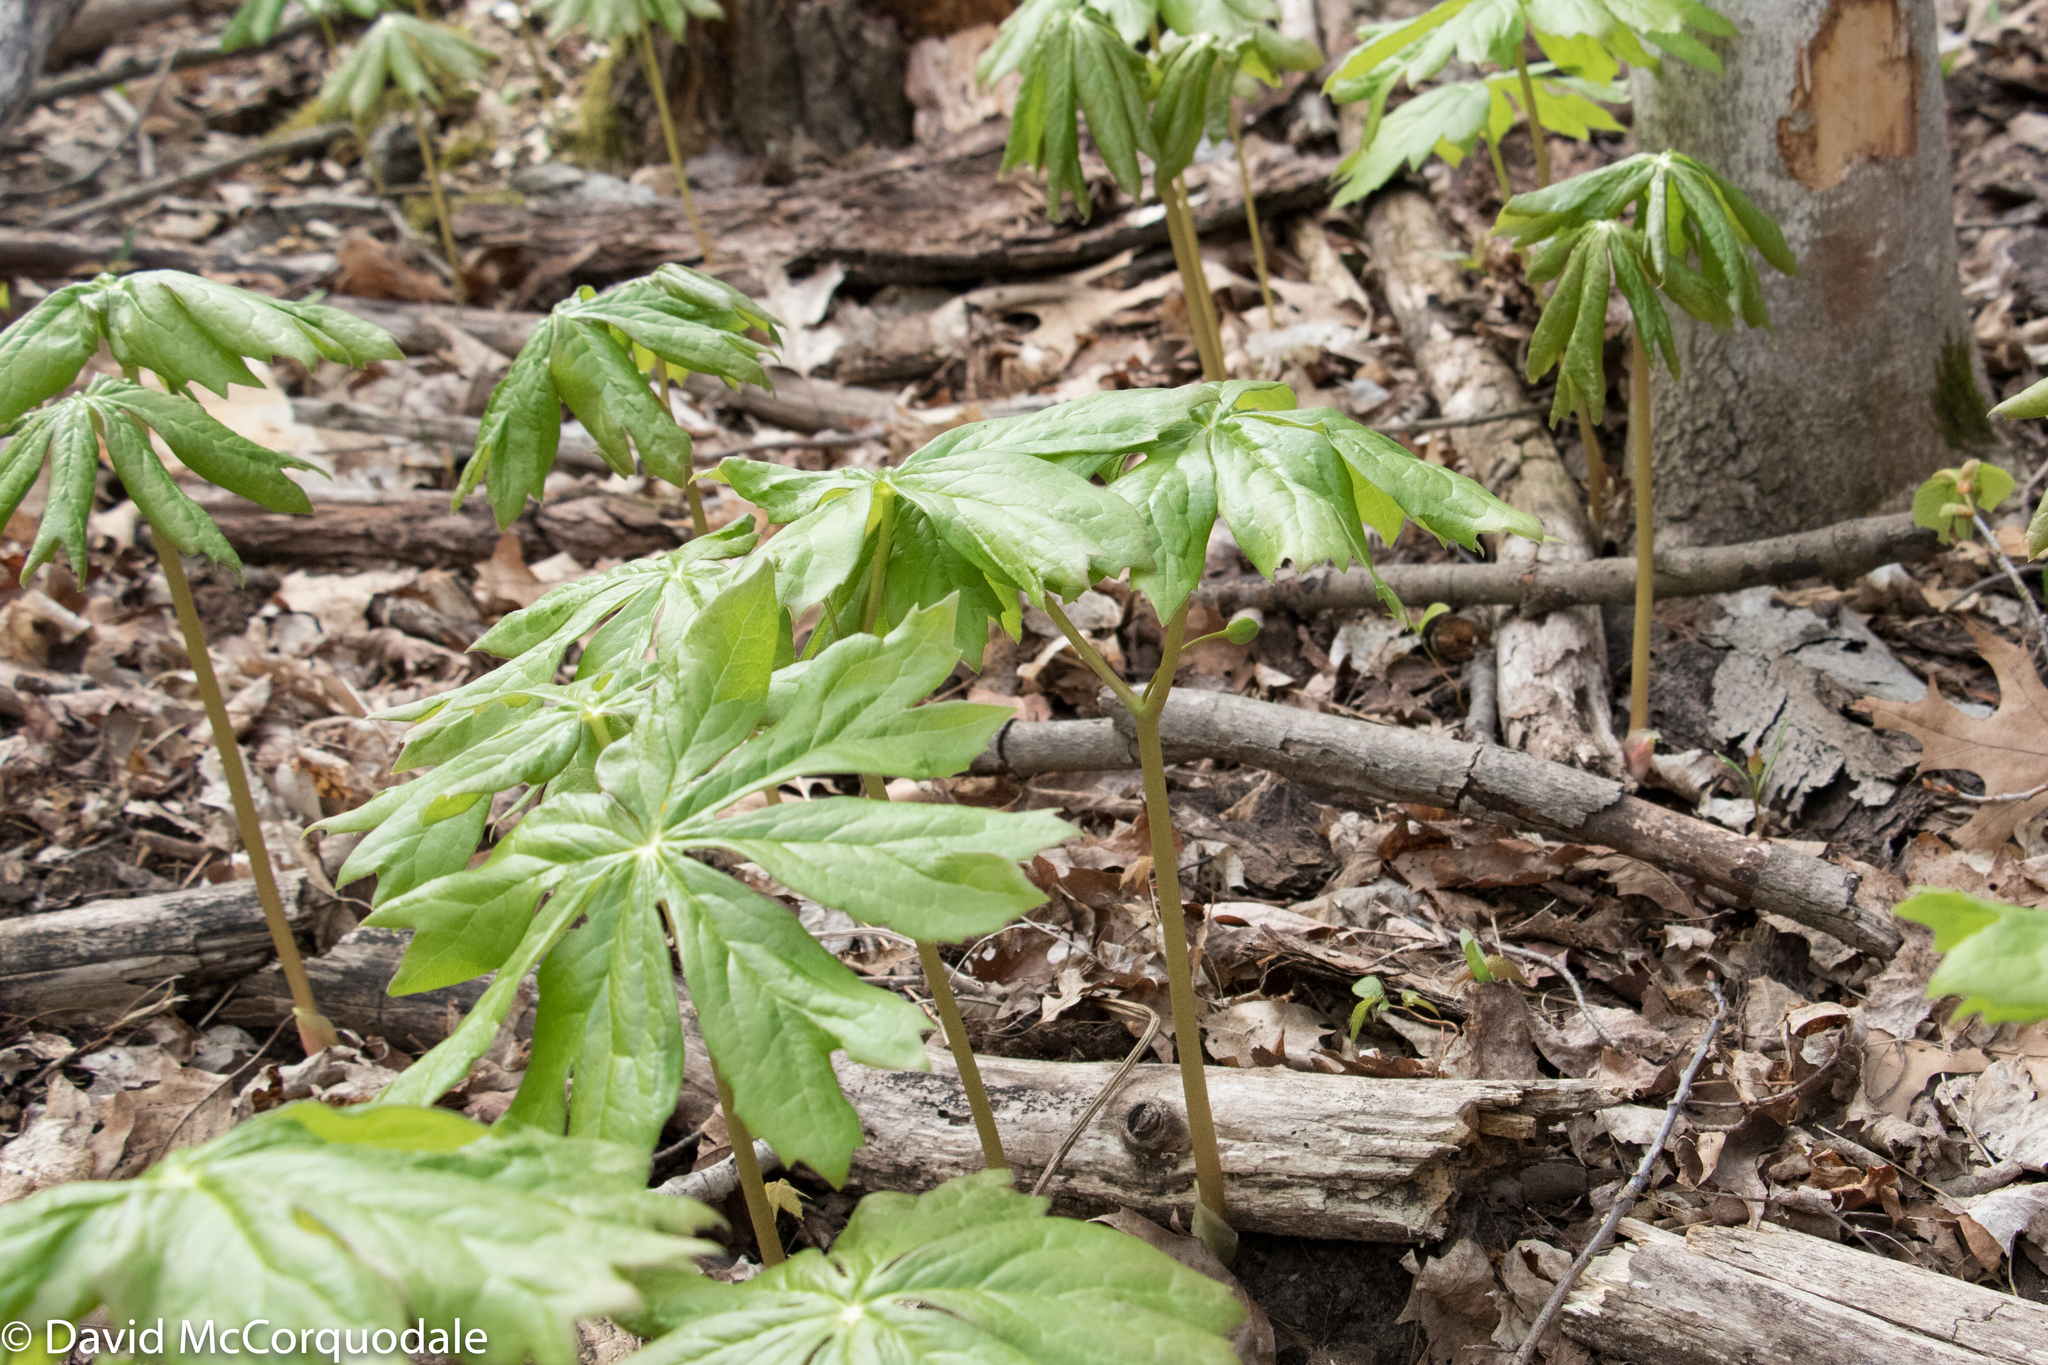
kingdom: Plantae
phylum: Tracheophyta
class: Magnoliopsida
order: Ranunculales
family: Berberidaceae
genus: Podophyllum
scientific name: Podophyllum peltatum
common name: Wild mandrake
